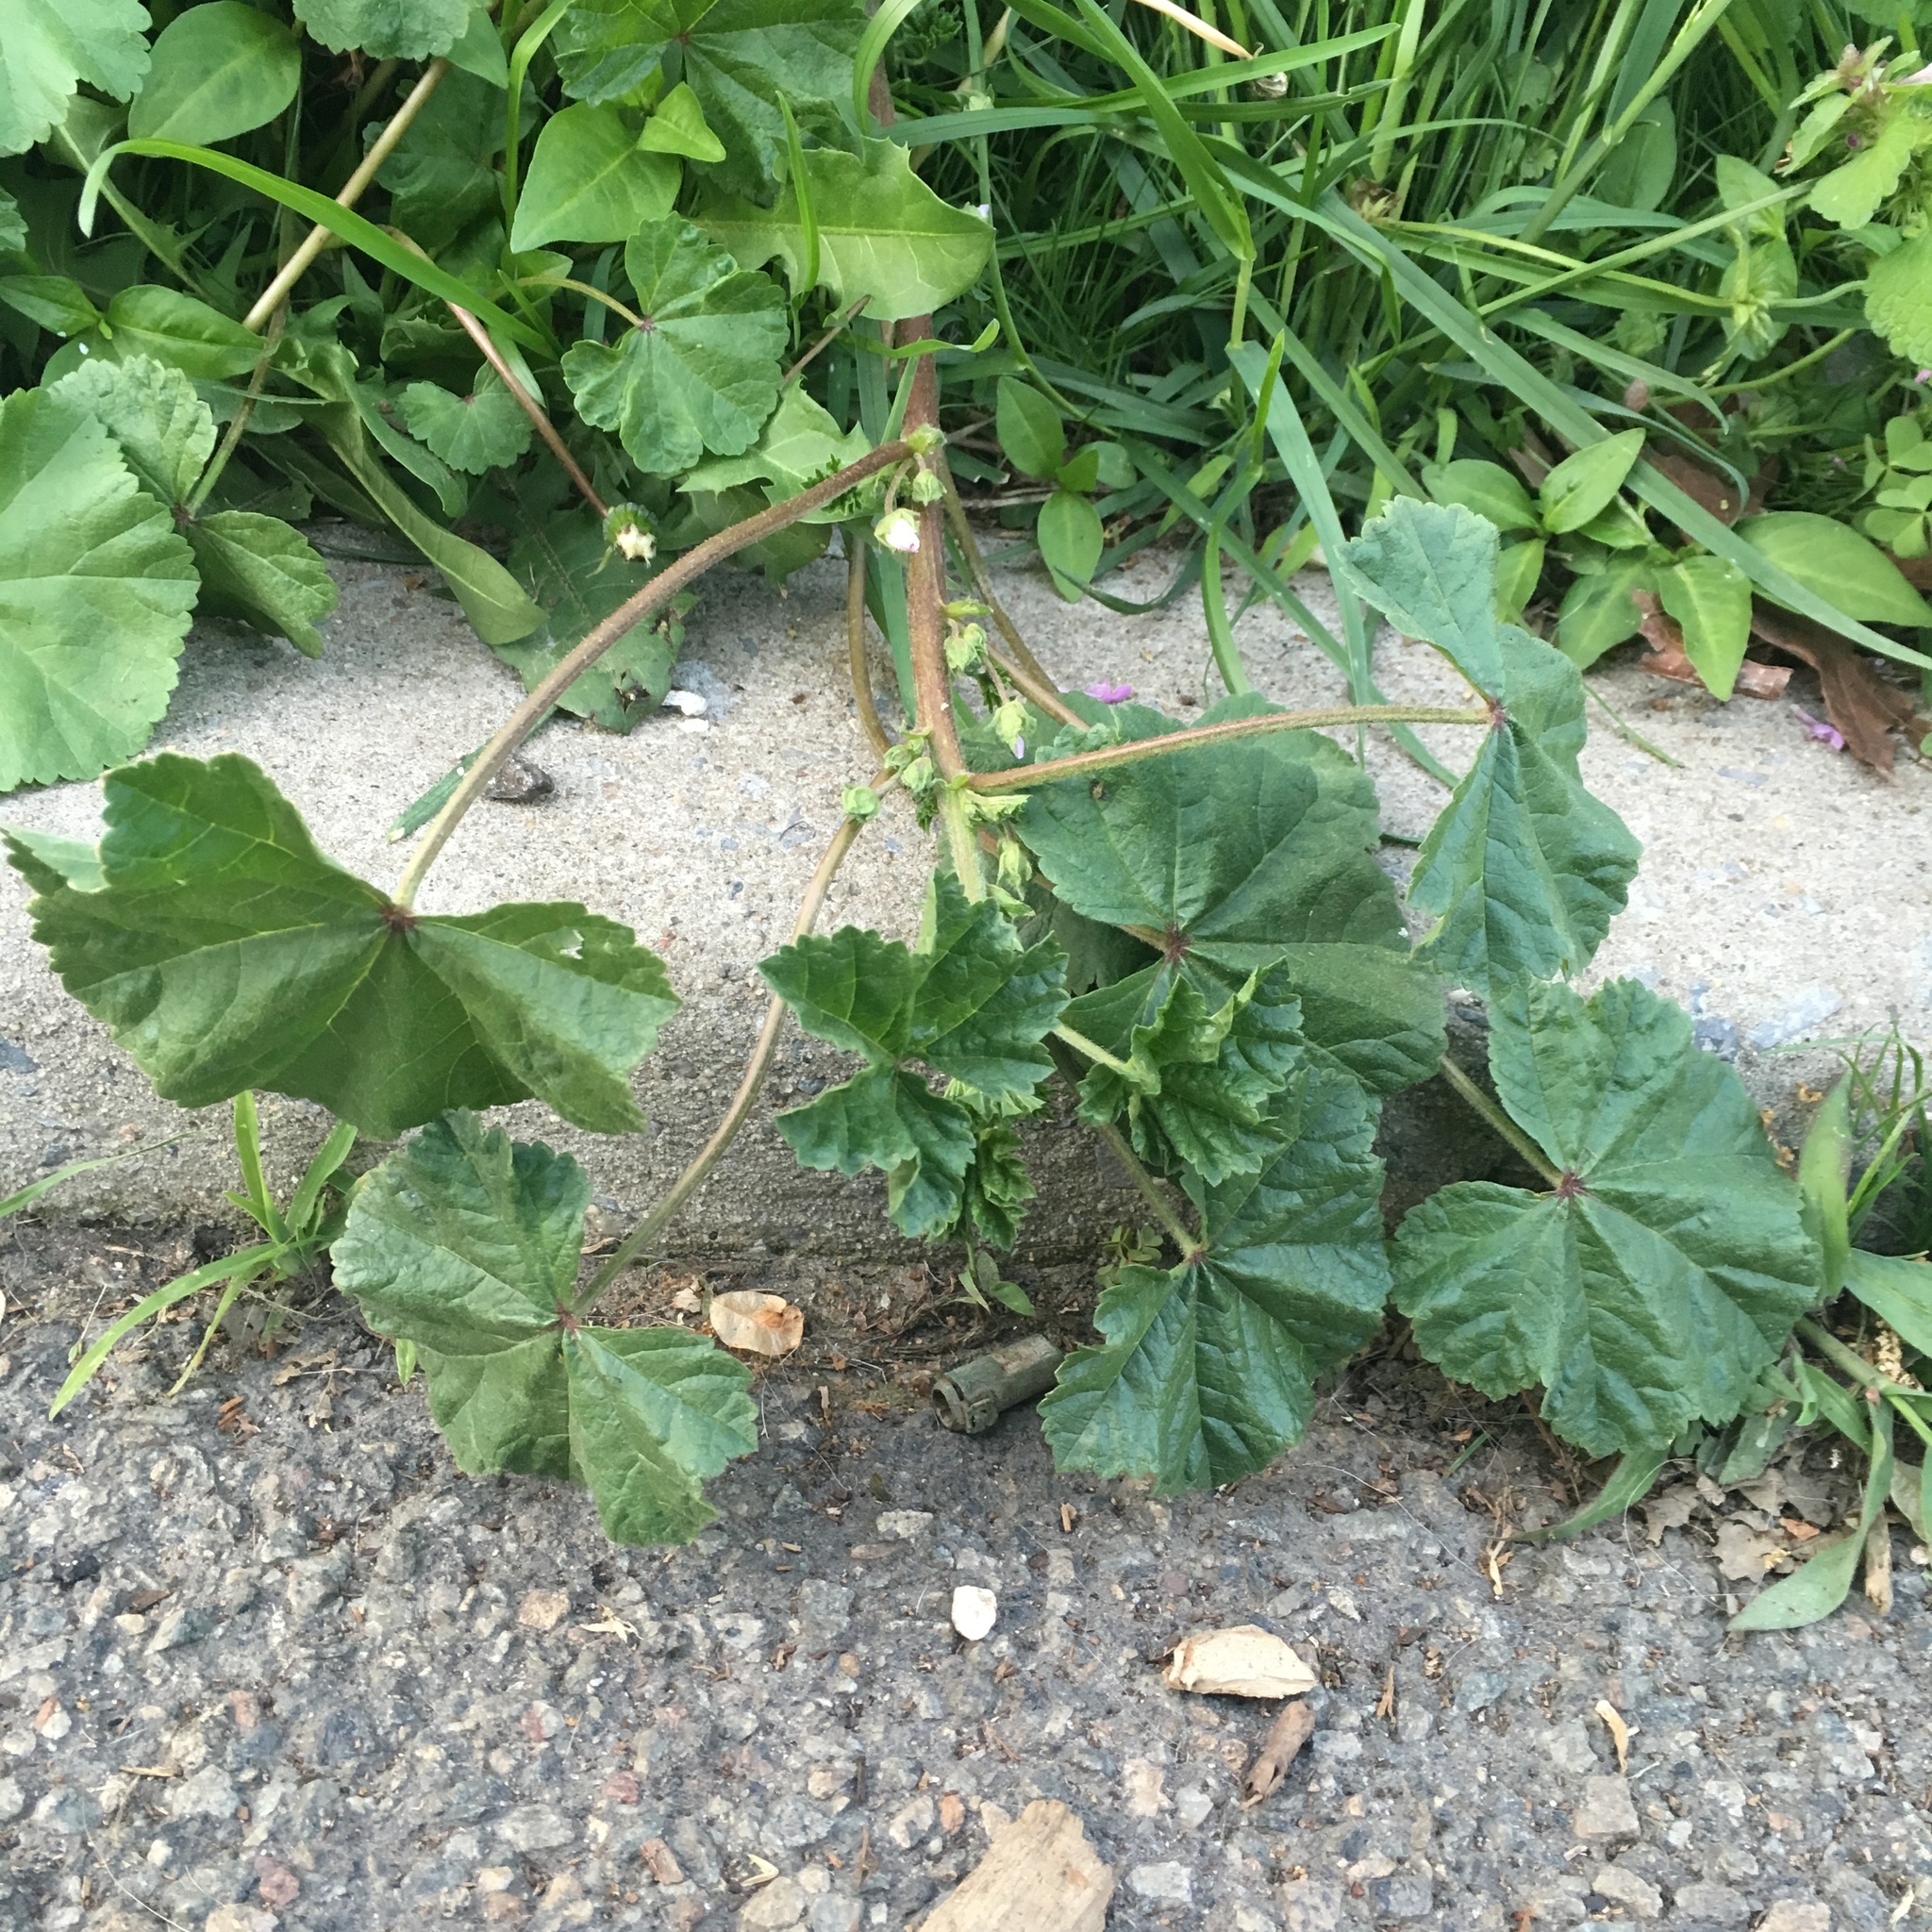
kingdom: Plantae
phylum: Tracheophyta
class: Magnoliopsida
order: Malvales
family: Malvaceae
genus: Malva
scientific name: Malva neglecta
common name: Common mallow
